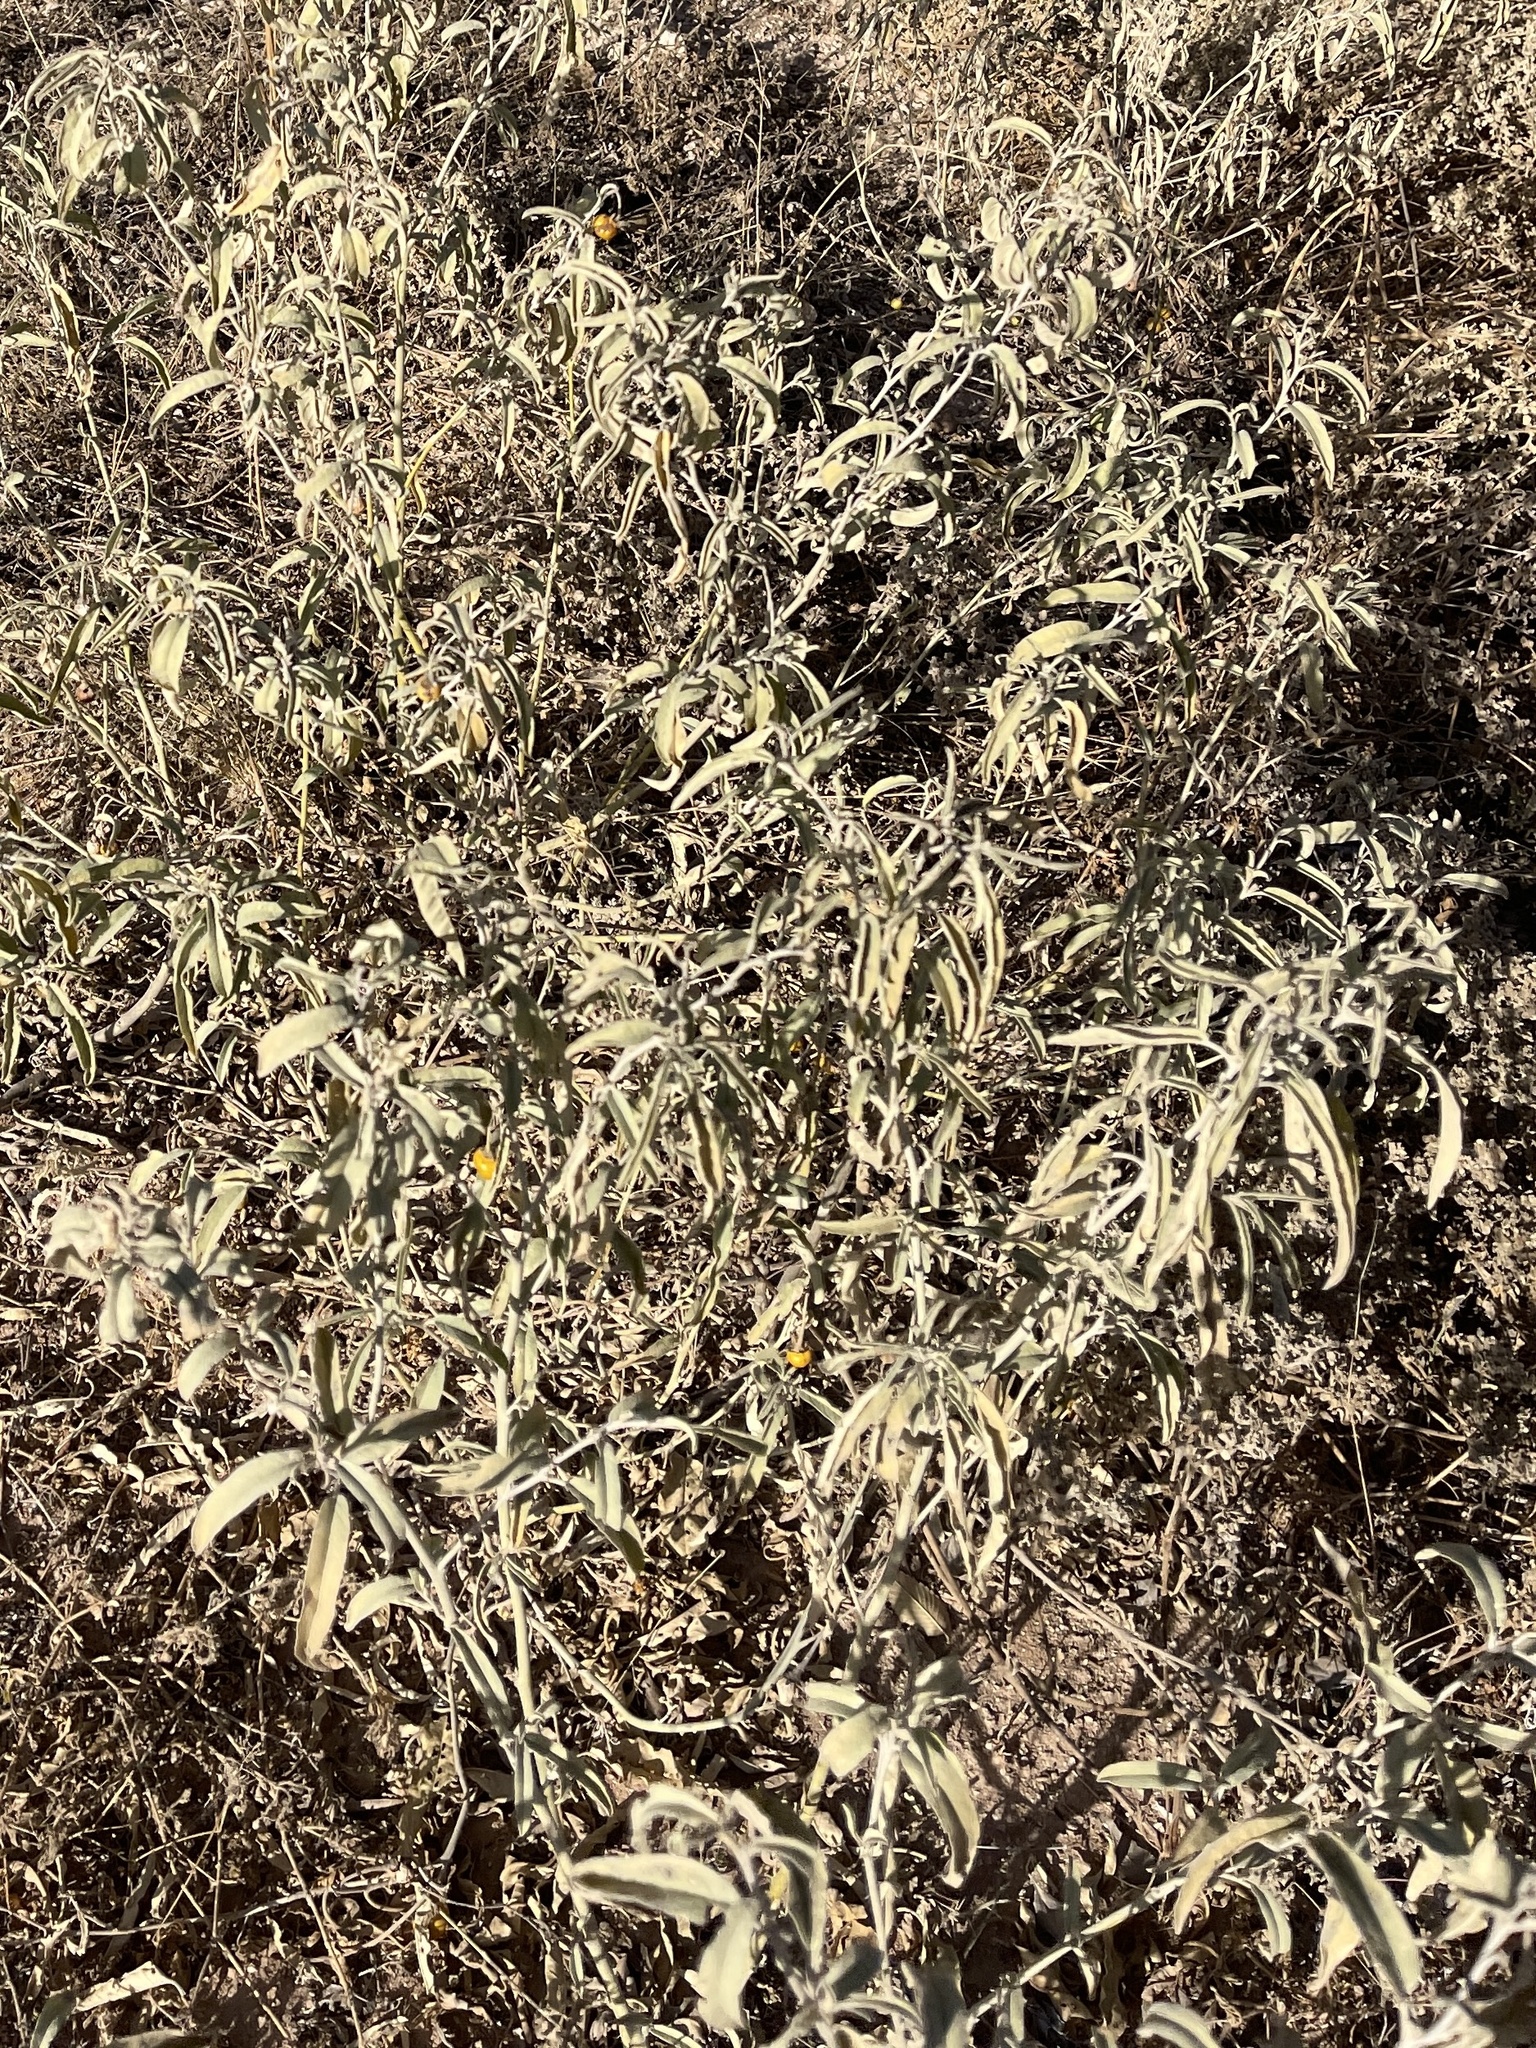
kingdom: Plantae
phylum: Tracheophyta
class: Magnoliopsida
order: Solanales
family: Solanaceae
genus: Solanum
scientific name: Solanum elaeagnifolium
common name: Silverleaf nightshade
